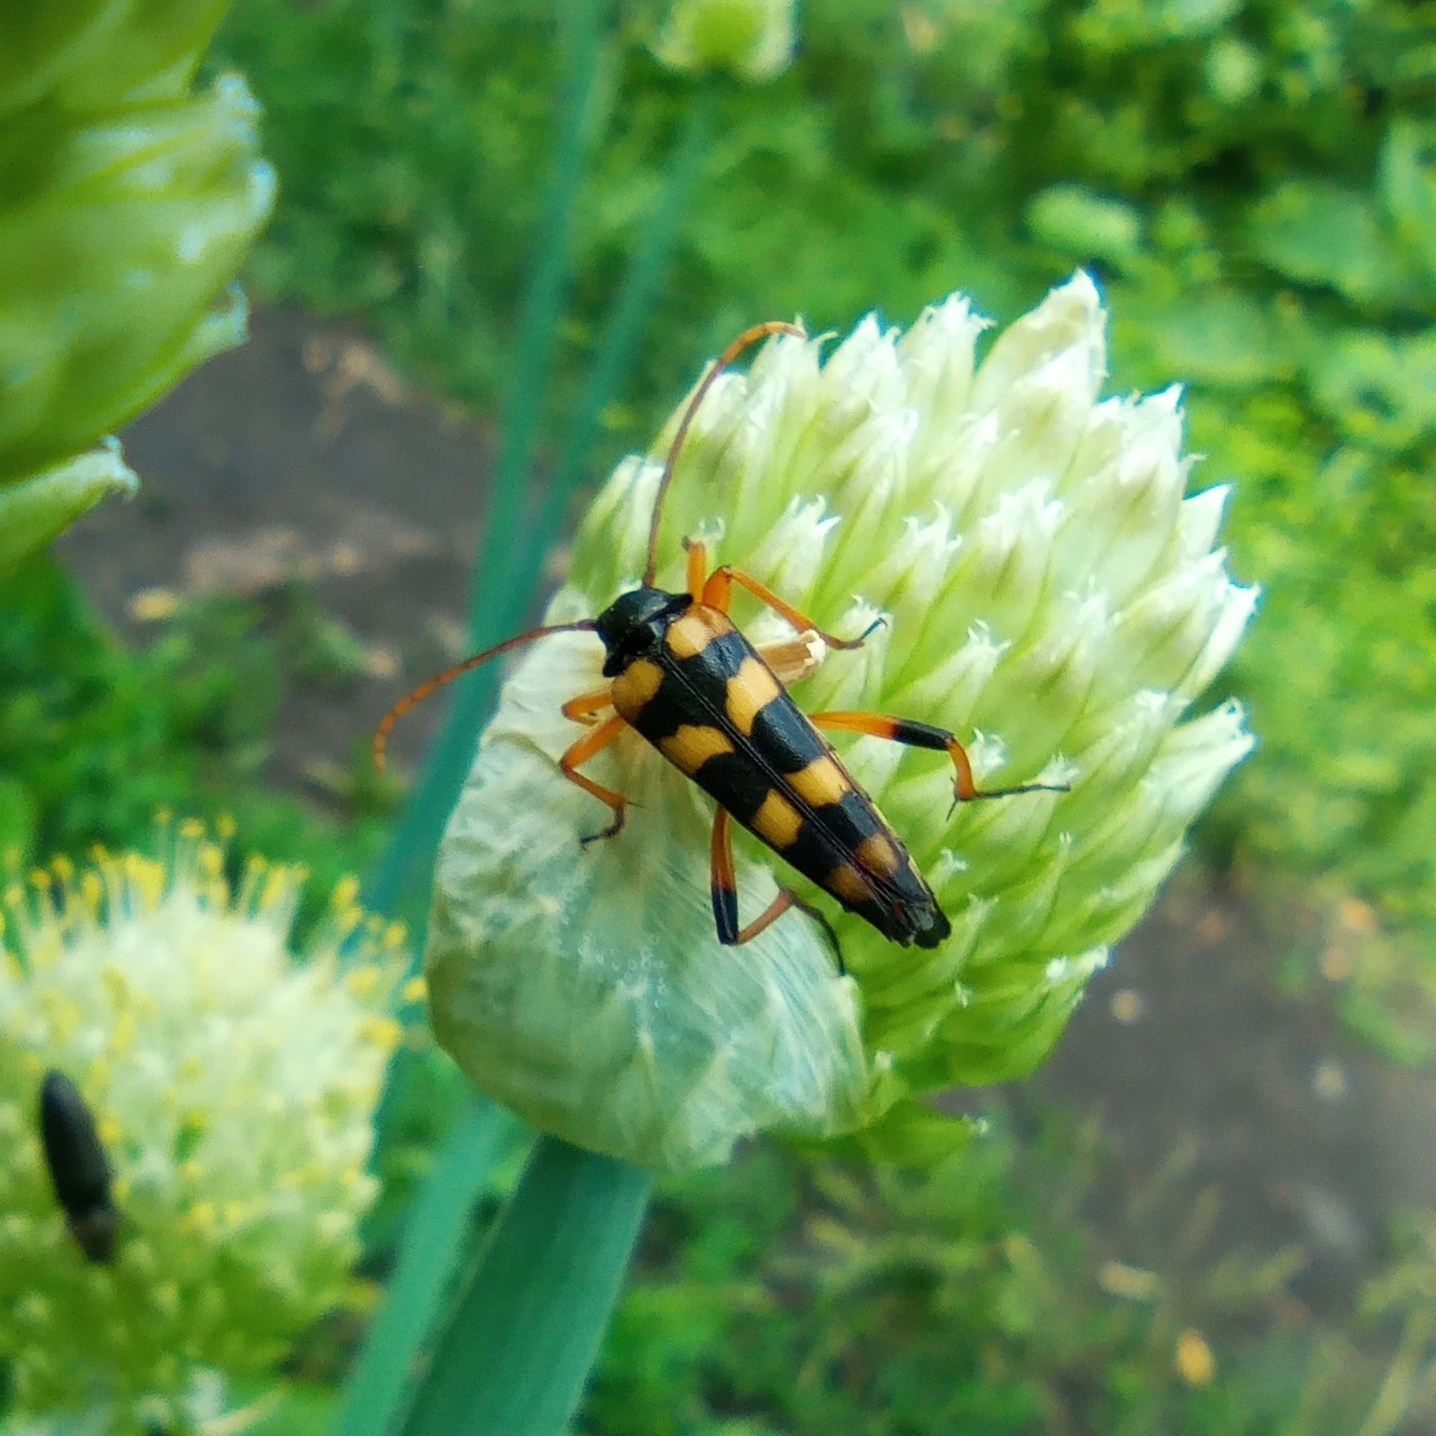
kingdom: Animalia
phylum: Arthropoda
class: Insecta
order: Coleoptera
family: Cerambycidae
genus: Strangalia
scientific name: Strangalia attenuata
